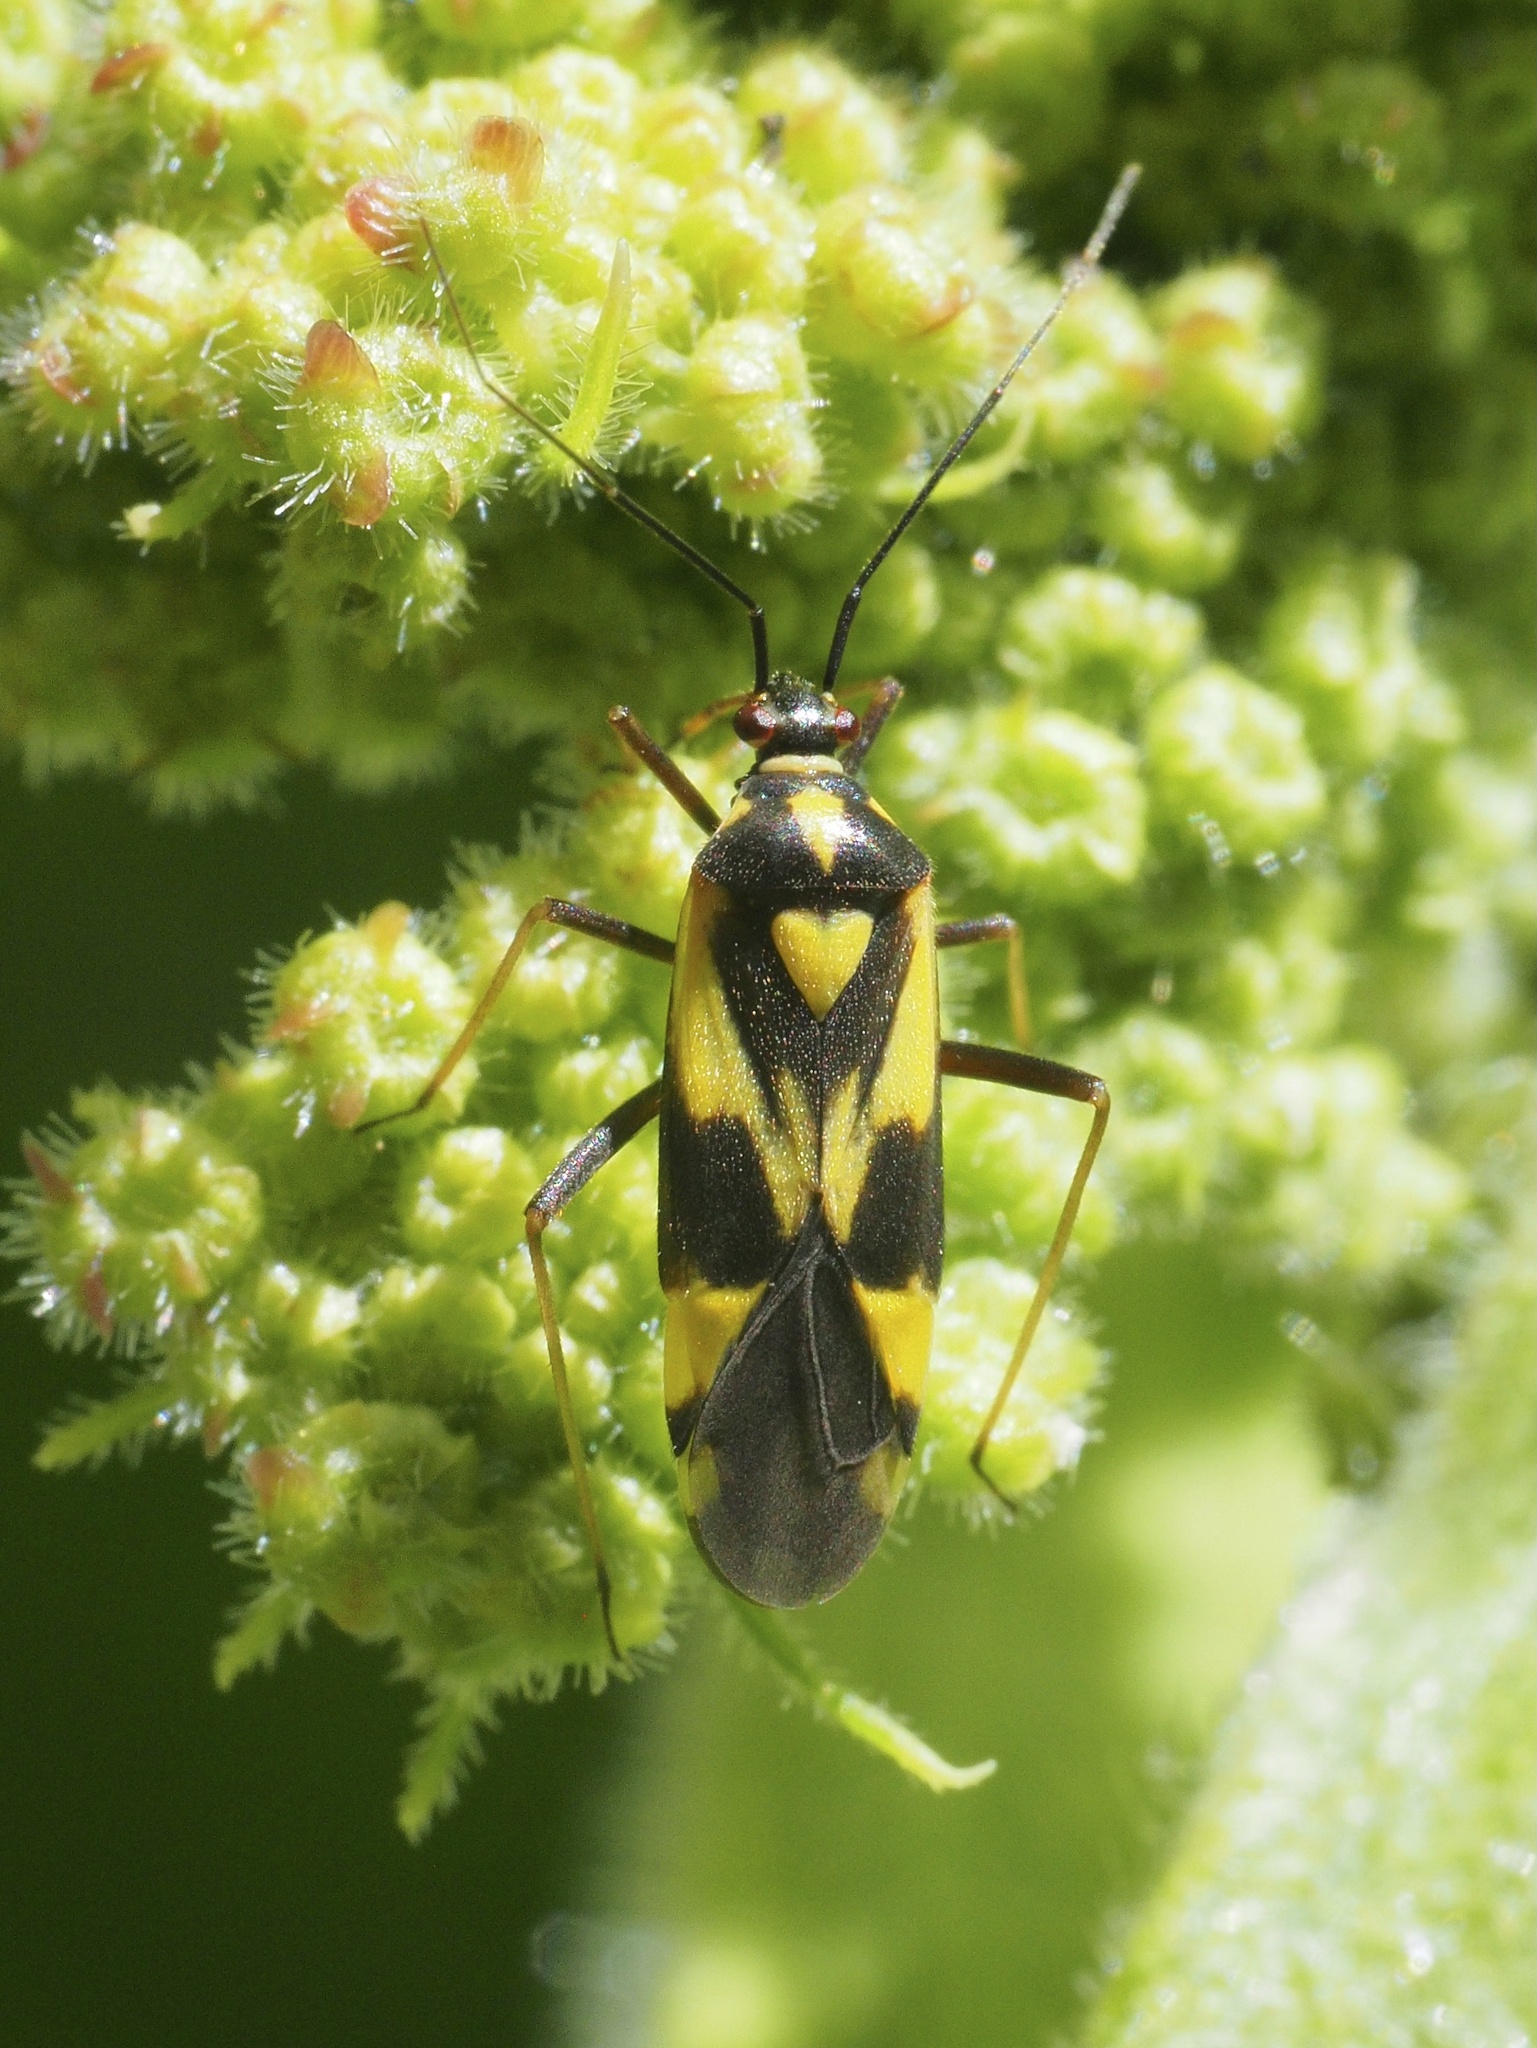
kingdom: Animalia
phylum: Arthropoda
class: Insecta
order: Hemiptera
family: Miridae
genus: Grypocoris
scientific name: Grypocoris sexguttatus
